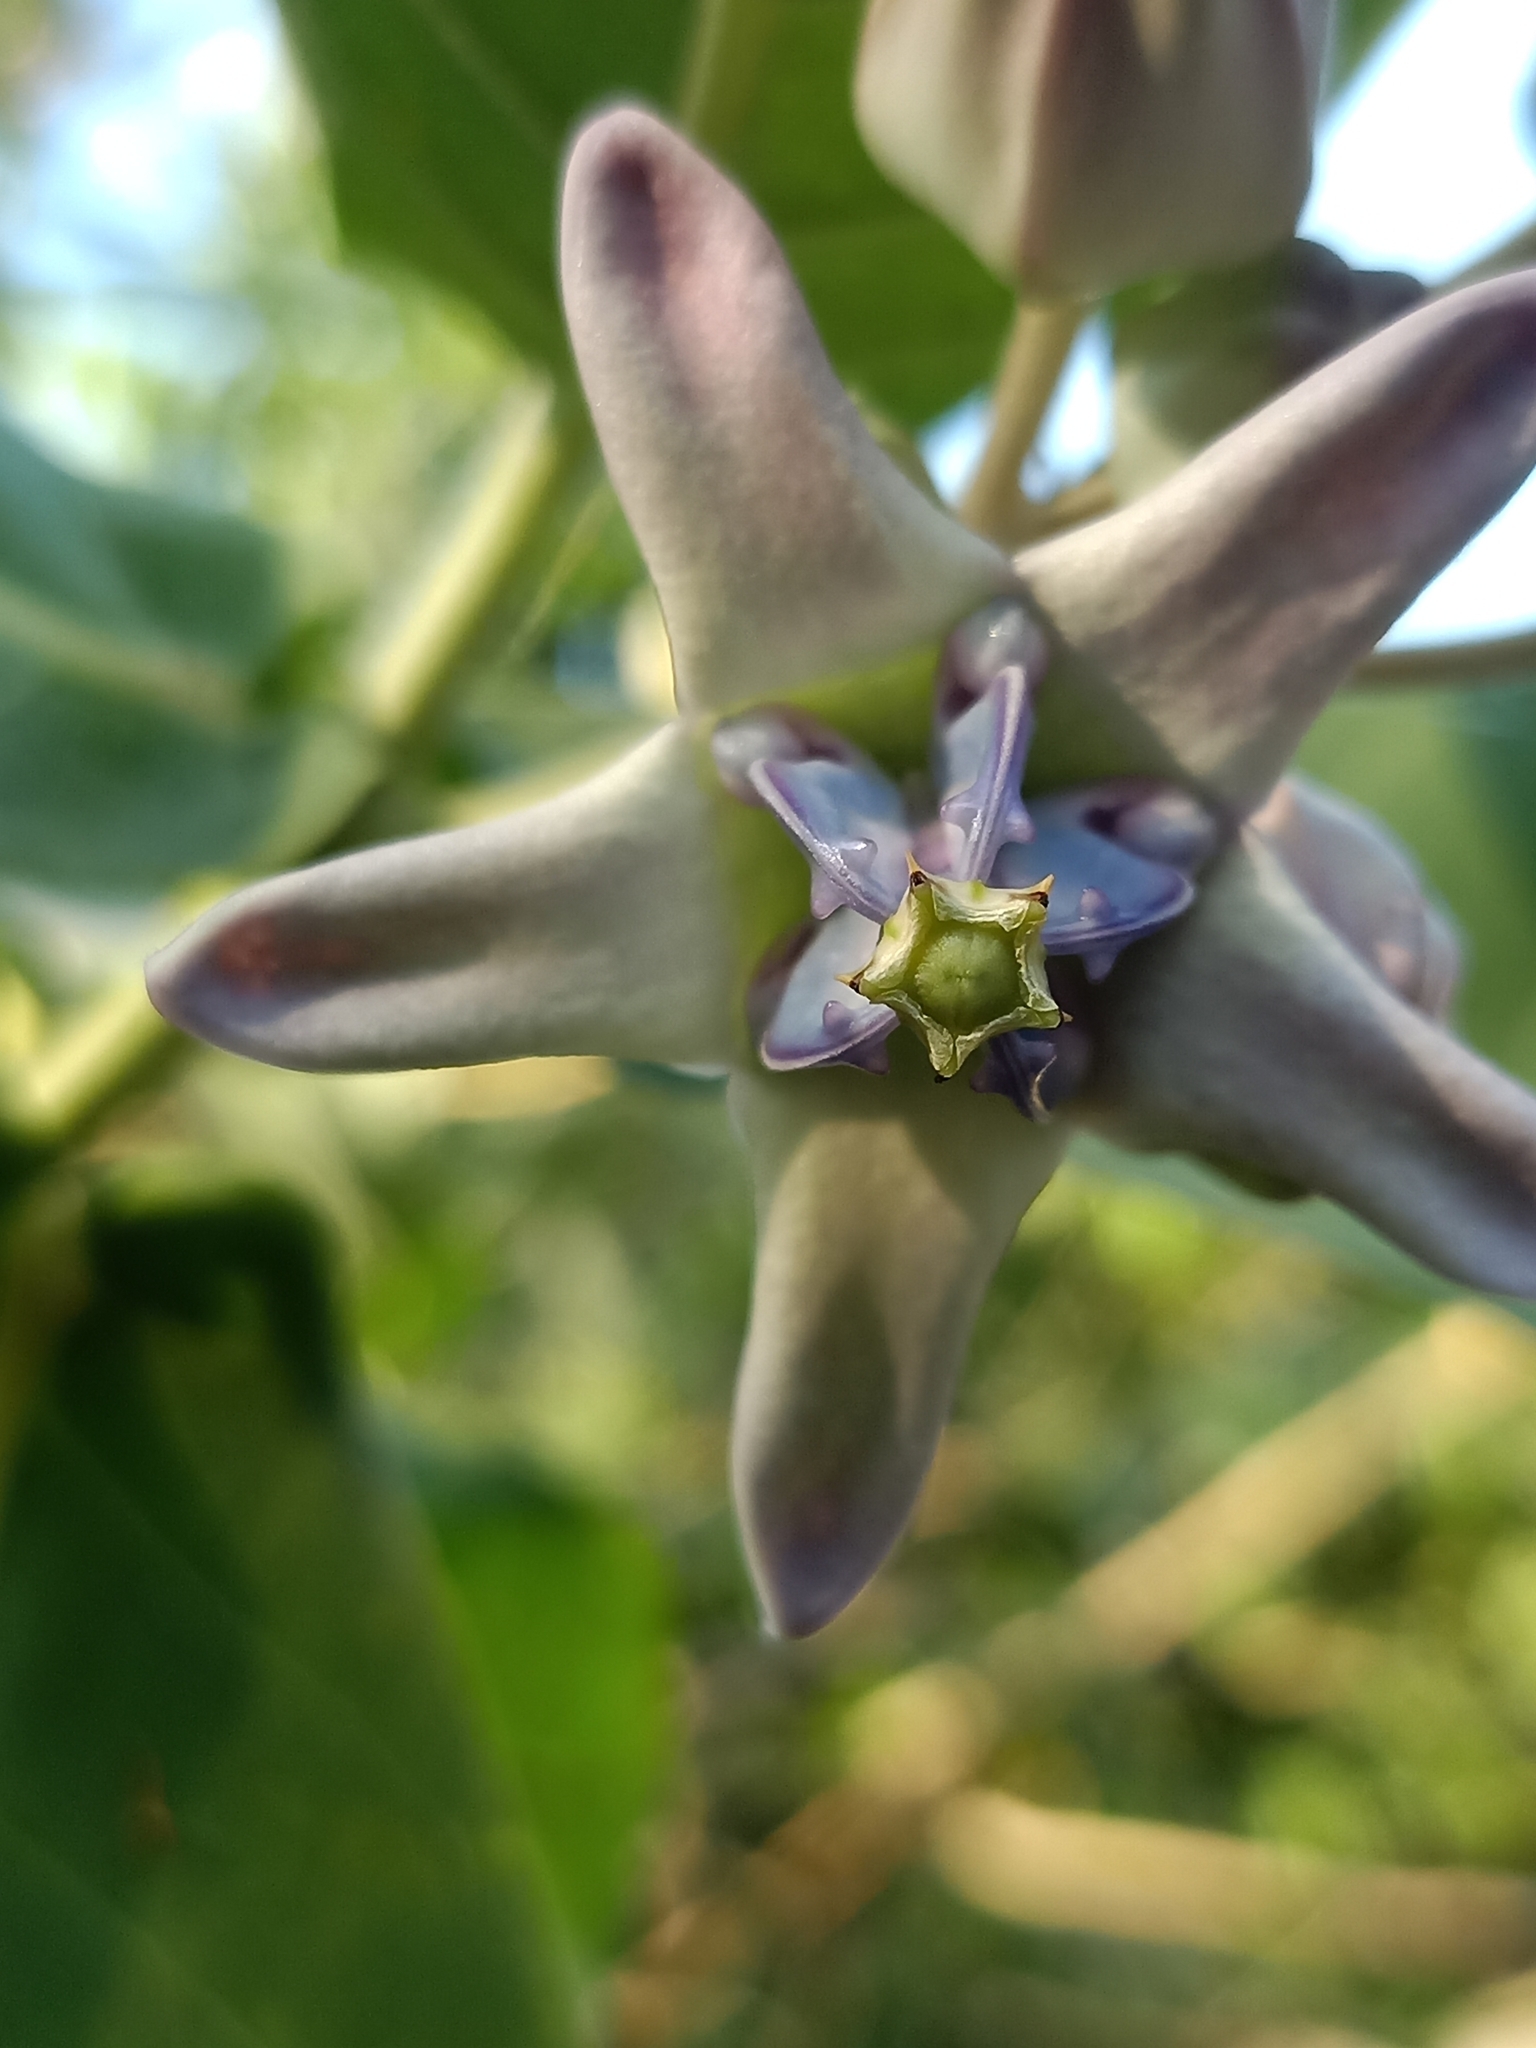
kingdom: Plantae
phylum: Tracheophyta
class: Magnoliopsida
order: Gentianales
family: Apocynaceae
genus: Calotropis
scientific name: Calotropis gigantea
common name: Crown flower
